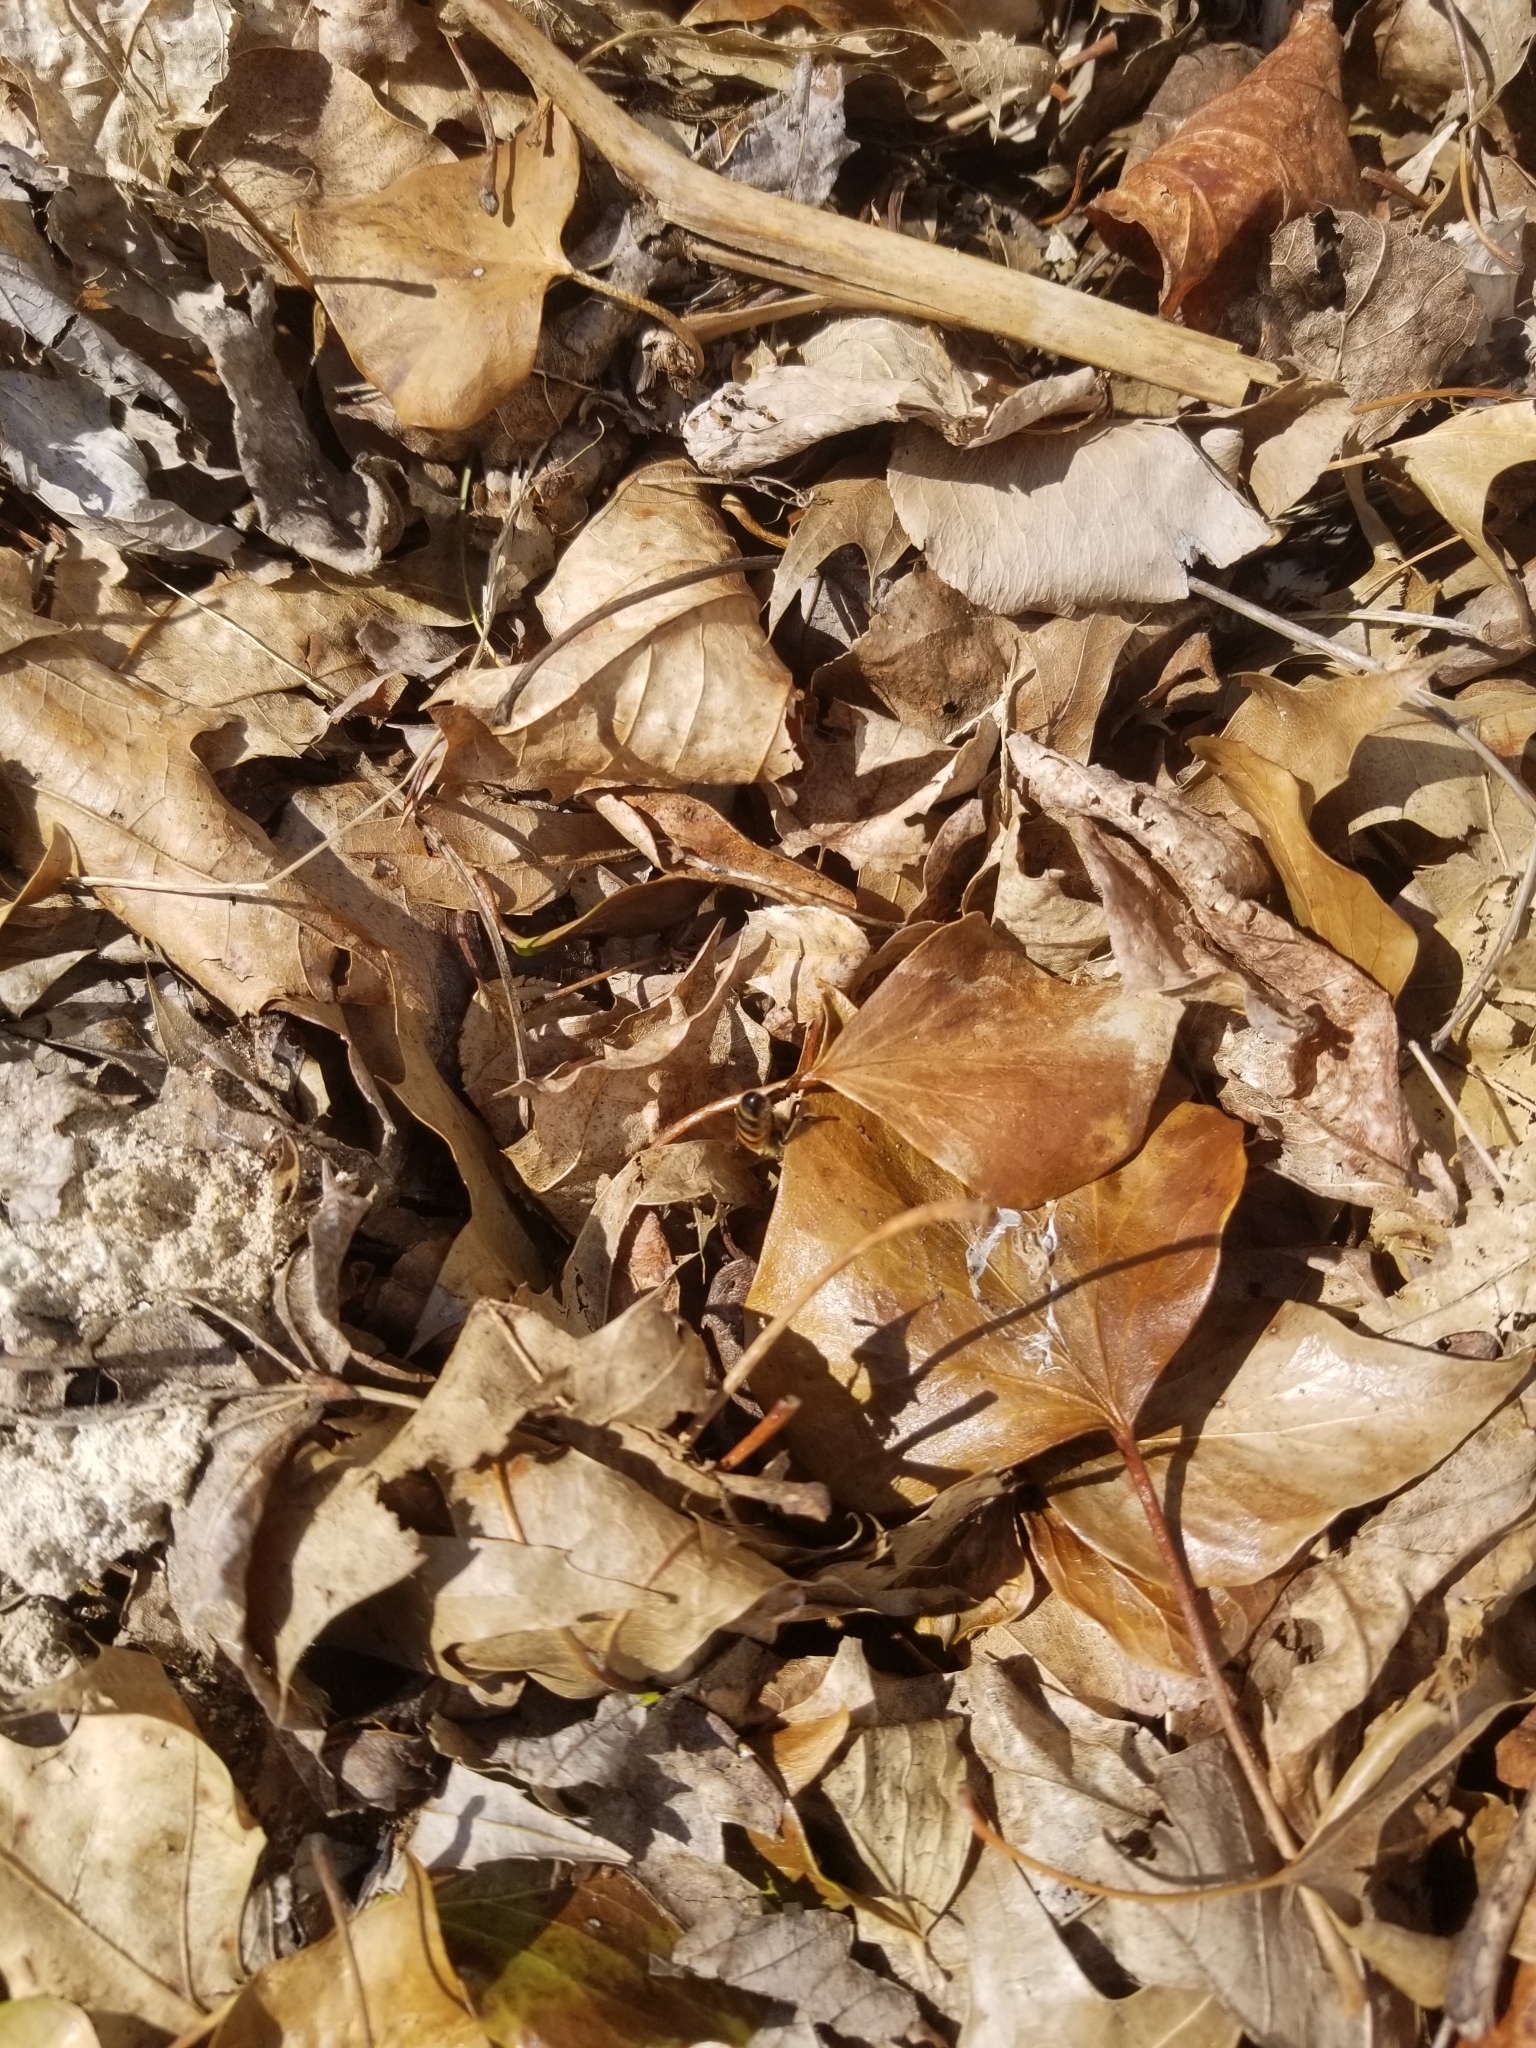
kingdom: Animalia
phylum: Arthropoda
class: Insecta
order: Hymenoptera
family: Apidae
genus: Apis
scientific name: Apis mellifera
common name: Honey bee
